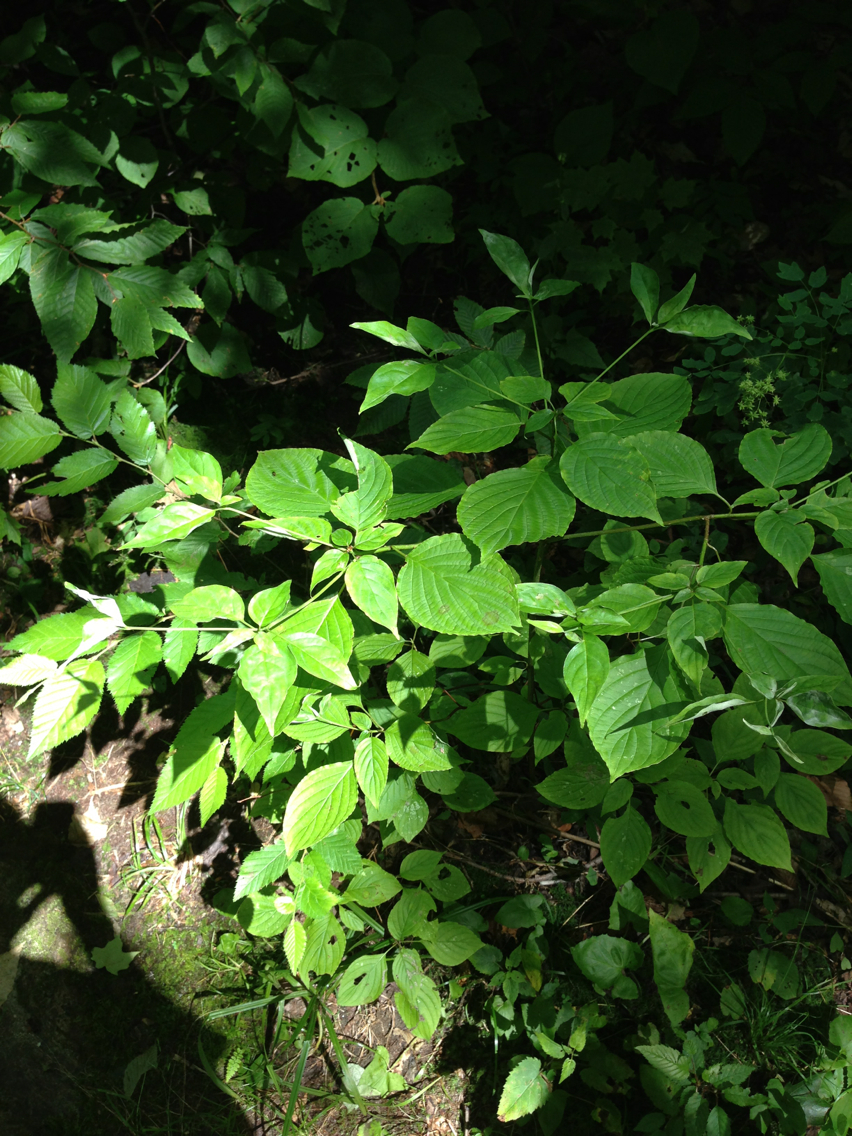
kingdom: Plantae
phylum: Tracheophyta
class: Magnoliopsida
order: Cornales
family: Cornaceae
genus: Cornus
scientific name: Cornus alternifolia
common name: Pagoda dogwood
